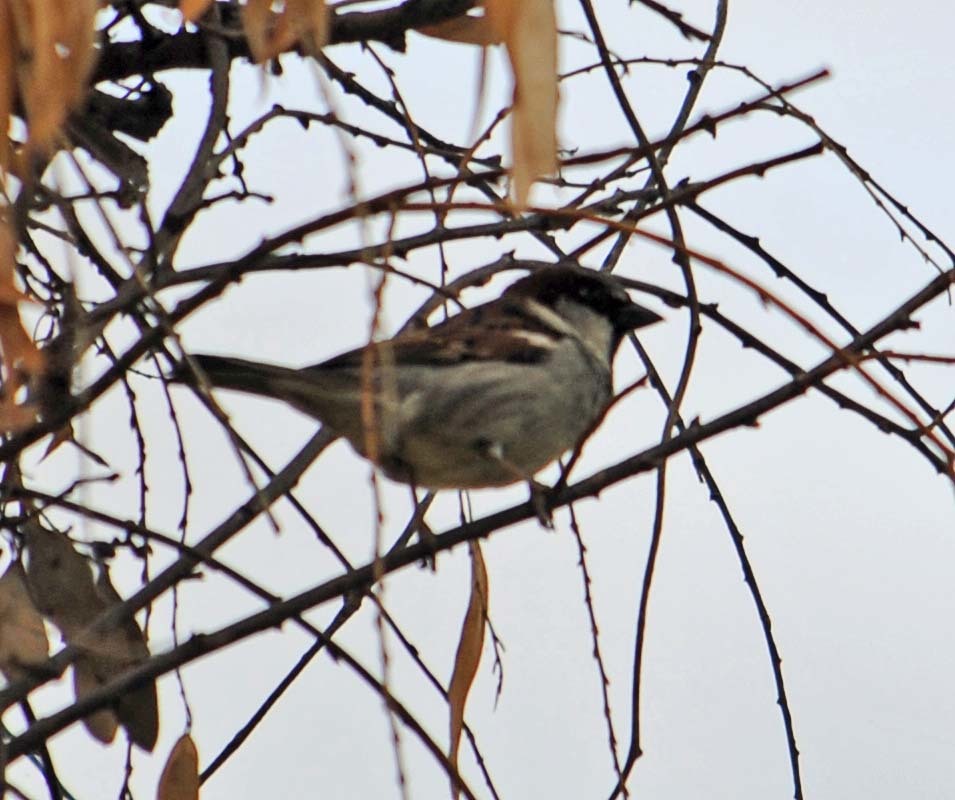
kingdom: Animalia
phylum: Chordata
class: Aves
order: Passeriformes
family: Passeridae
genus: Passer
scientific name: Passer domesticus
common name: House sparrow
